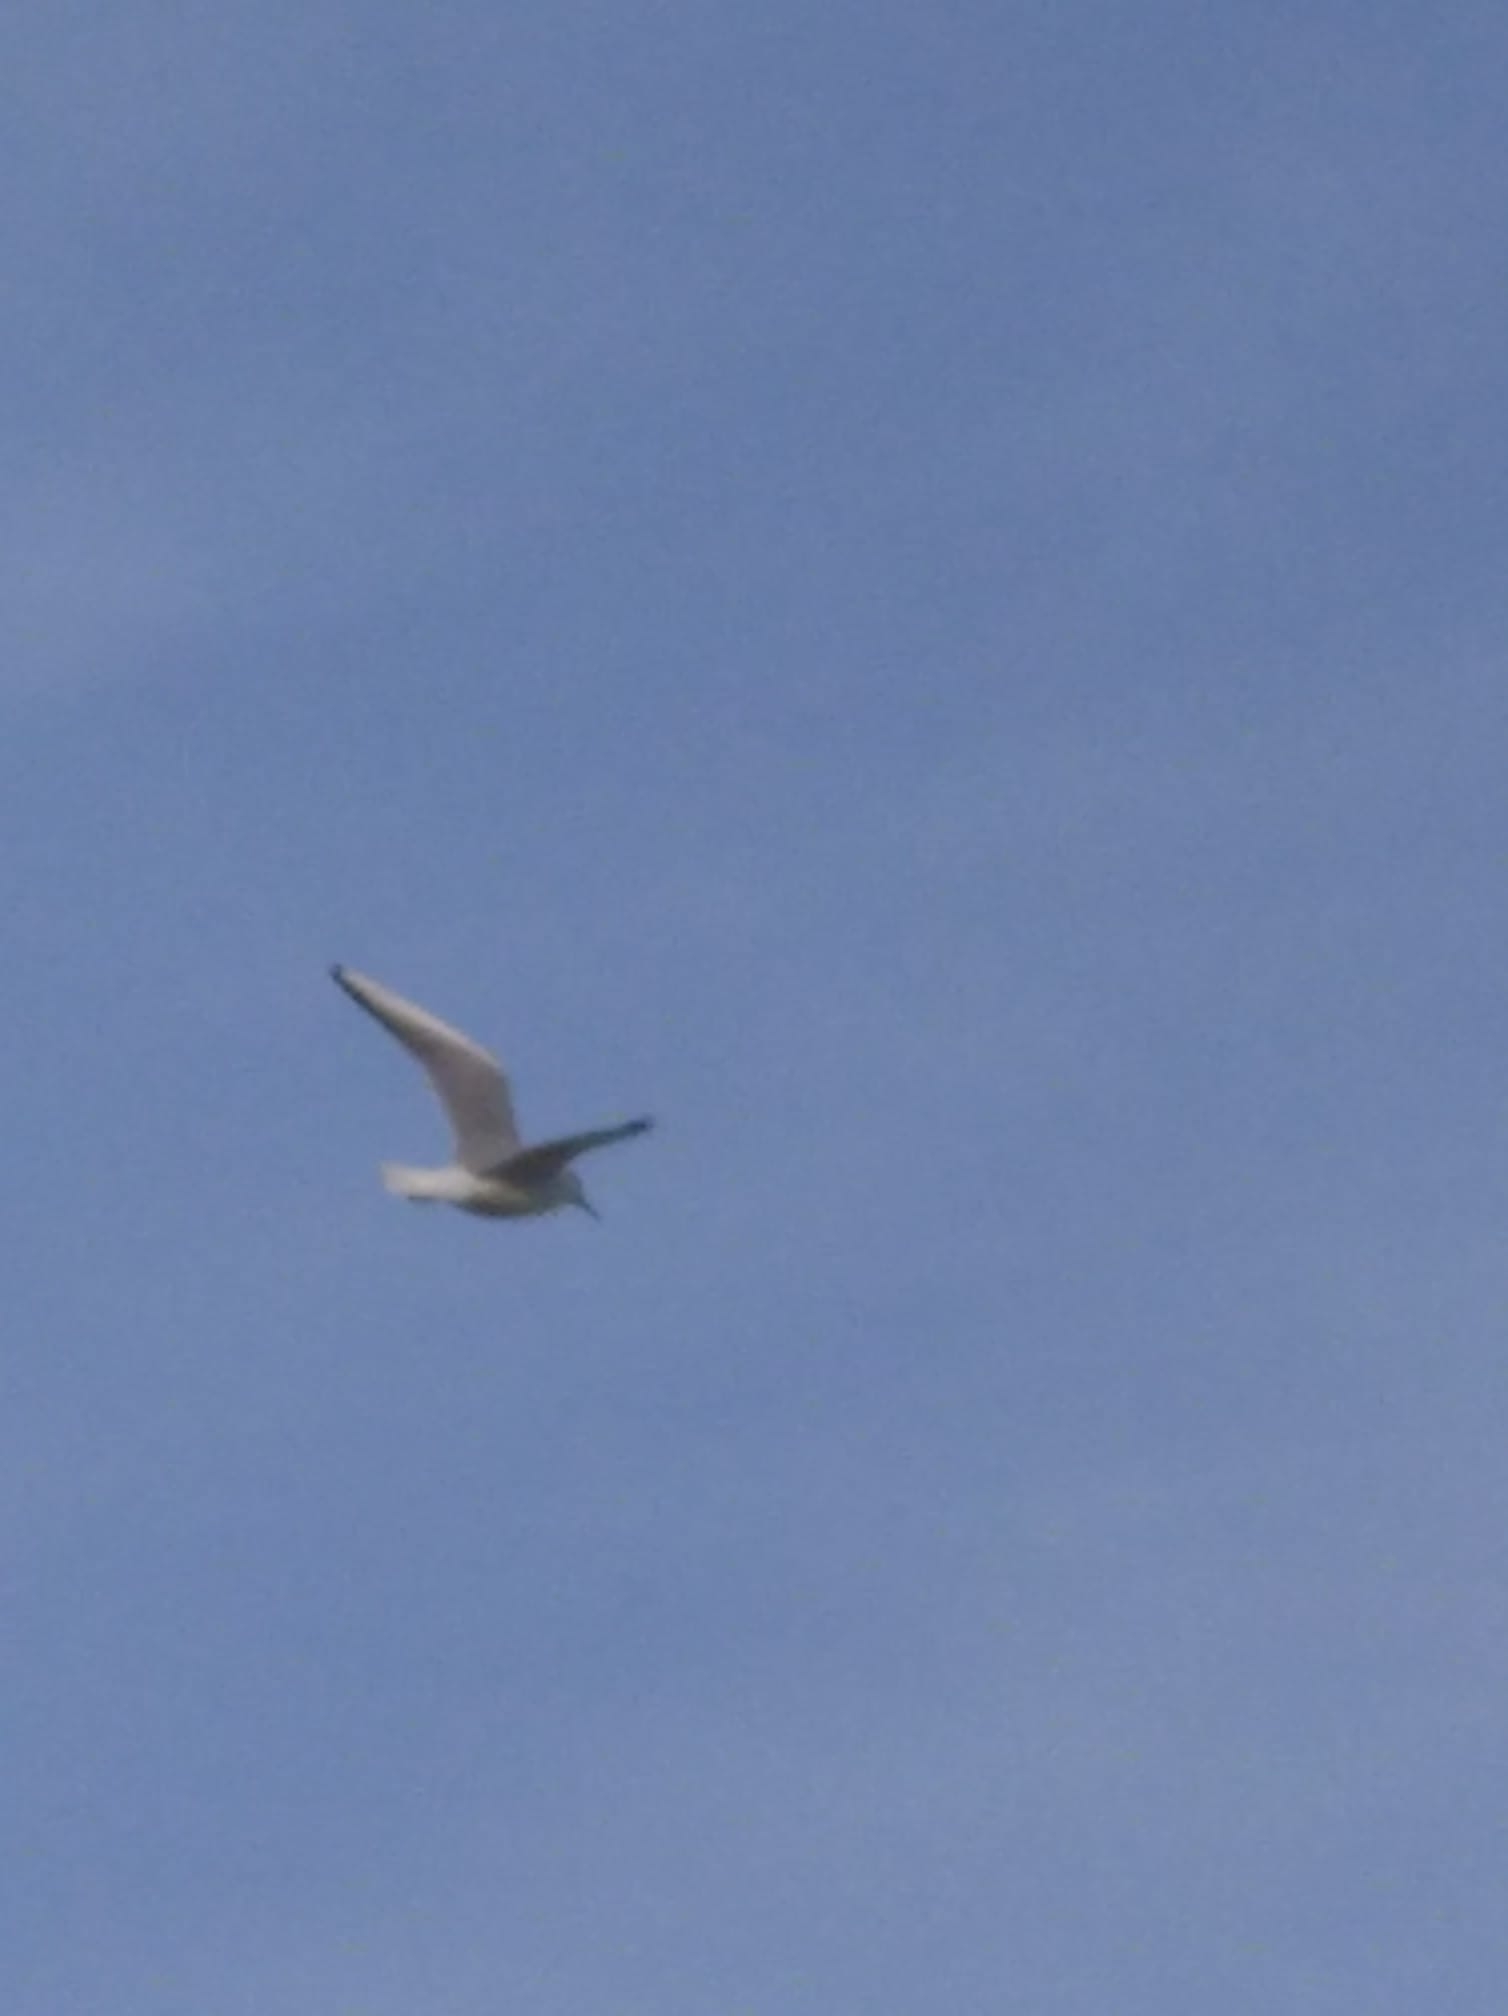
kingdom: Animalia
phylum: Chordata
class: Aves
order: Charadriiformes
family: Laridae
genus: Chroicocephalus
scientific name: Chroicocephalus ridibundus
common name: Black-headed gull
